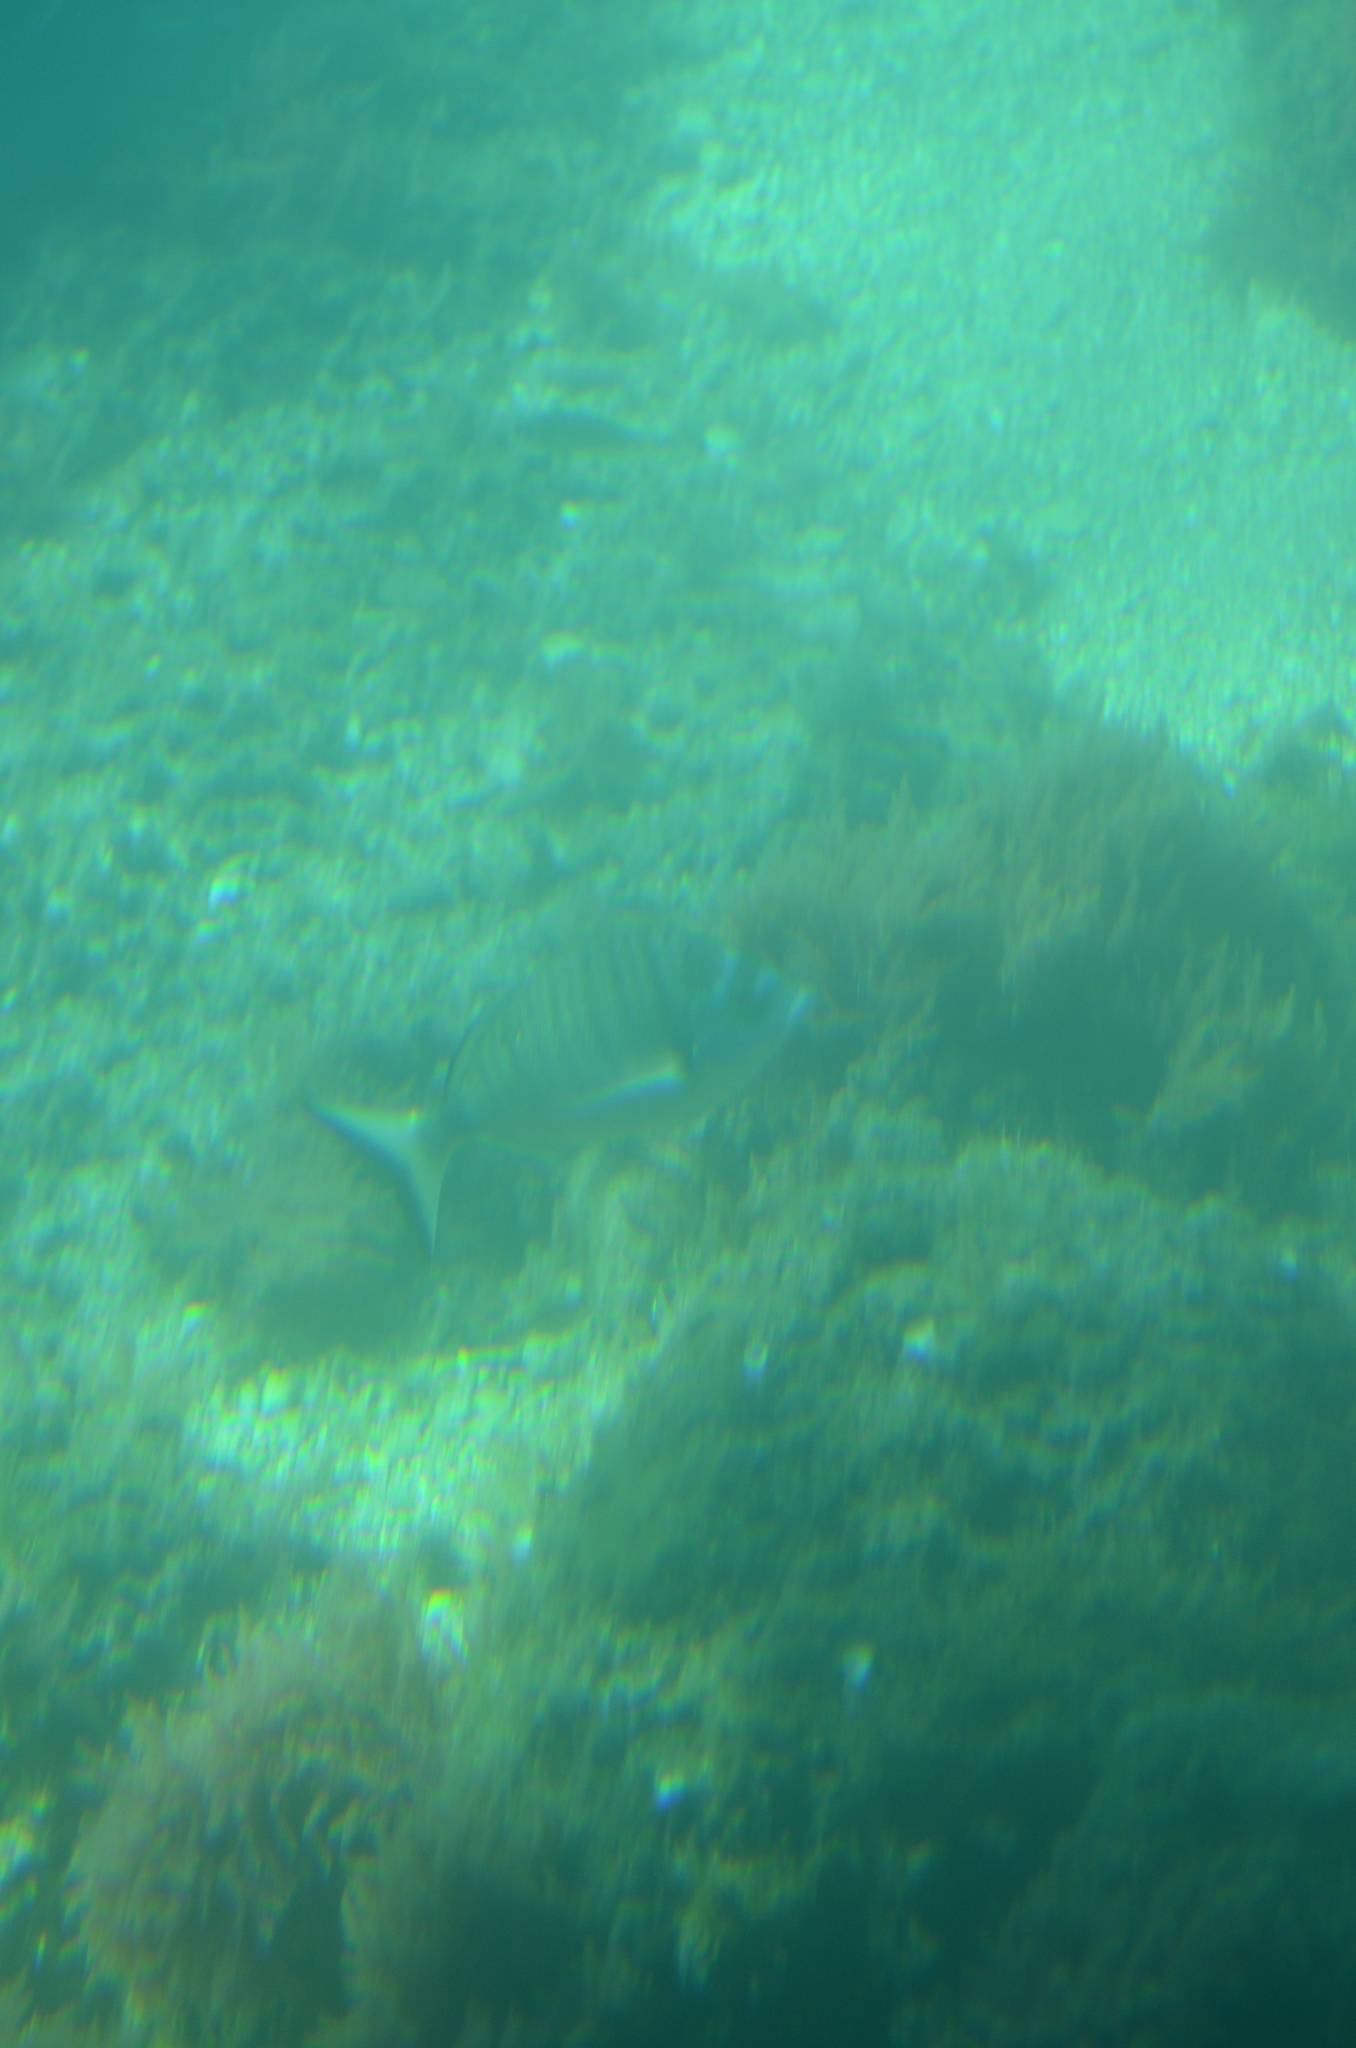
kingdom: Animalia
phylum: Chordata
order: Perciformes
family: Sparidae
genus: Diplodus
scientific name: Diplodus puntazzo
